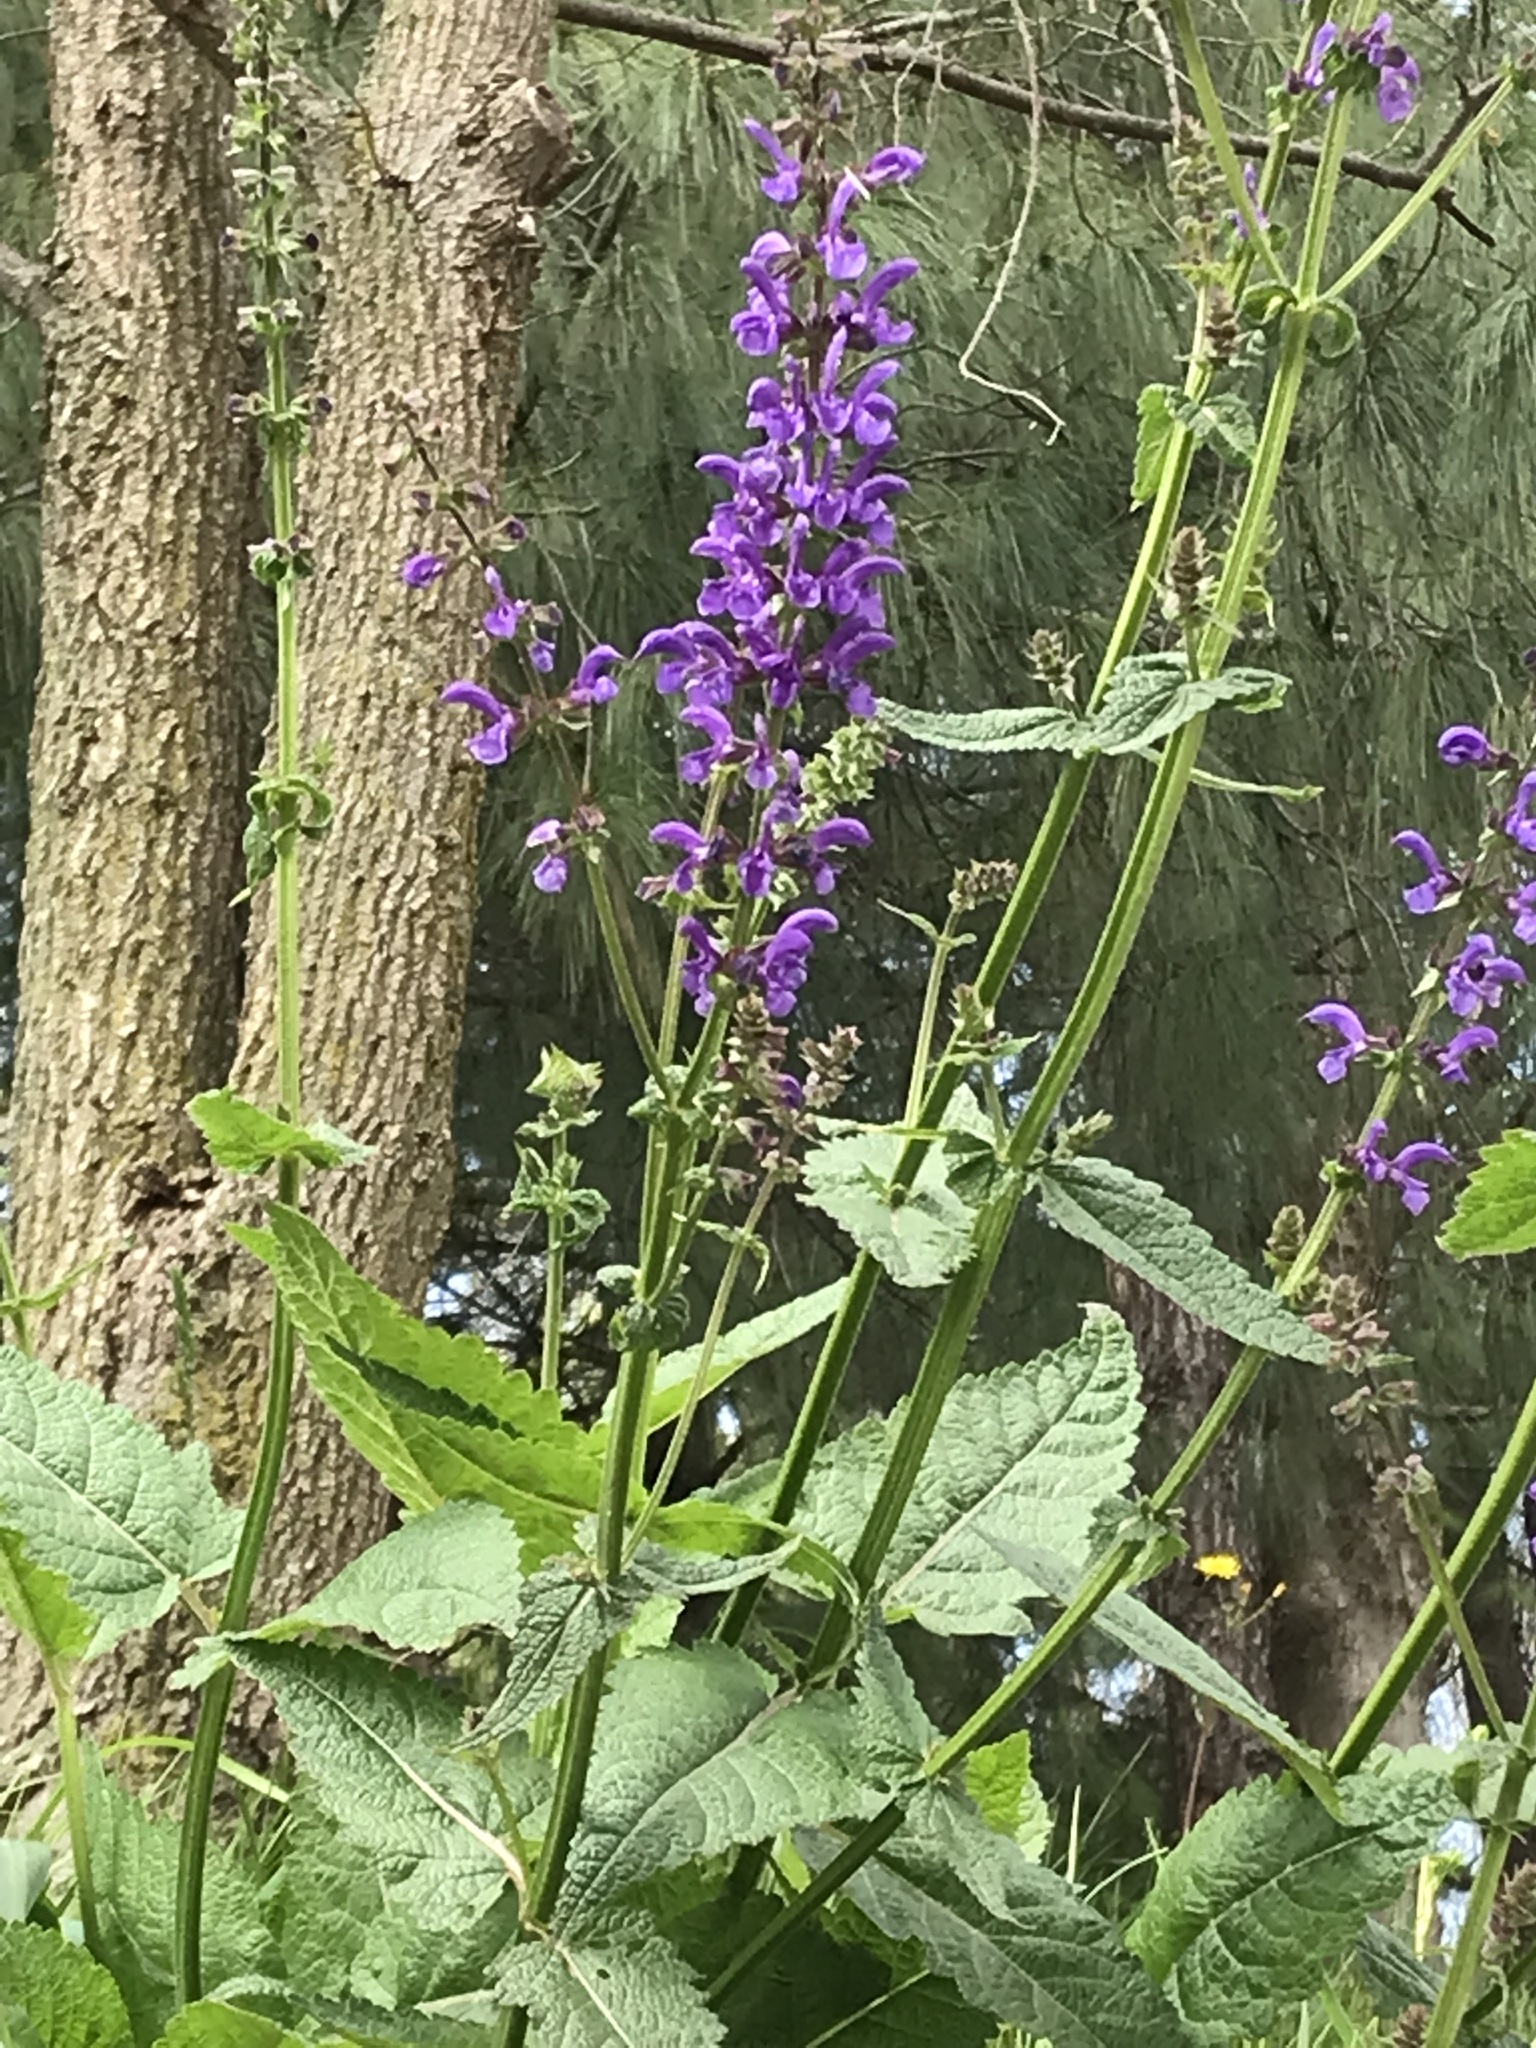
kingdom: Plantae
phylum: Tracheophyta
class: Magnoliopsida
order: Lamiales
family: Lamiaceae
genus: Salvia
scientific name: Salvia pratensis
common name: Meadow sage
